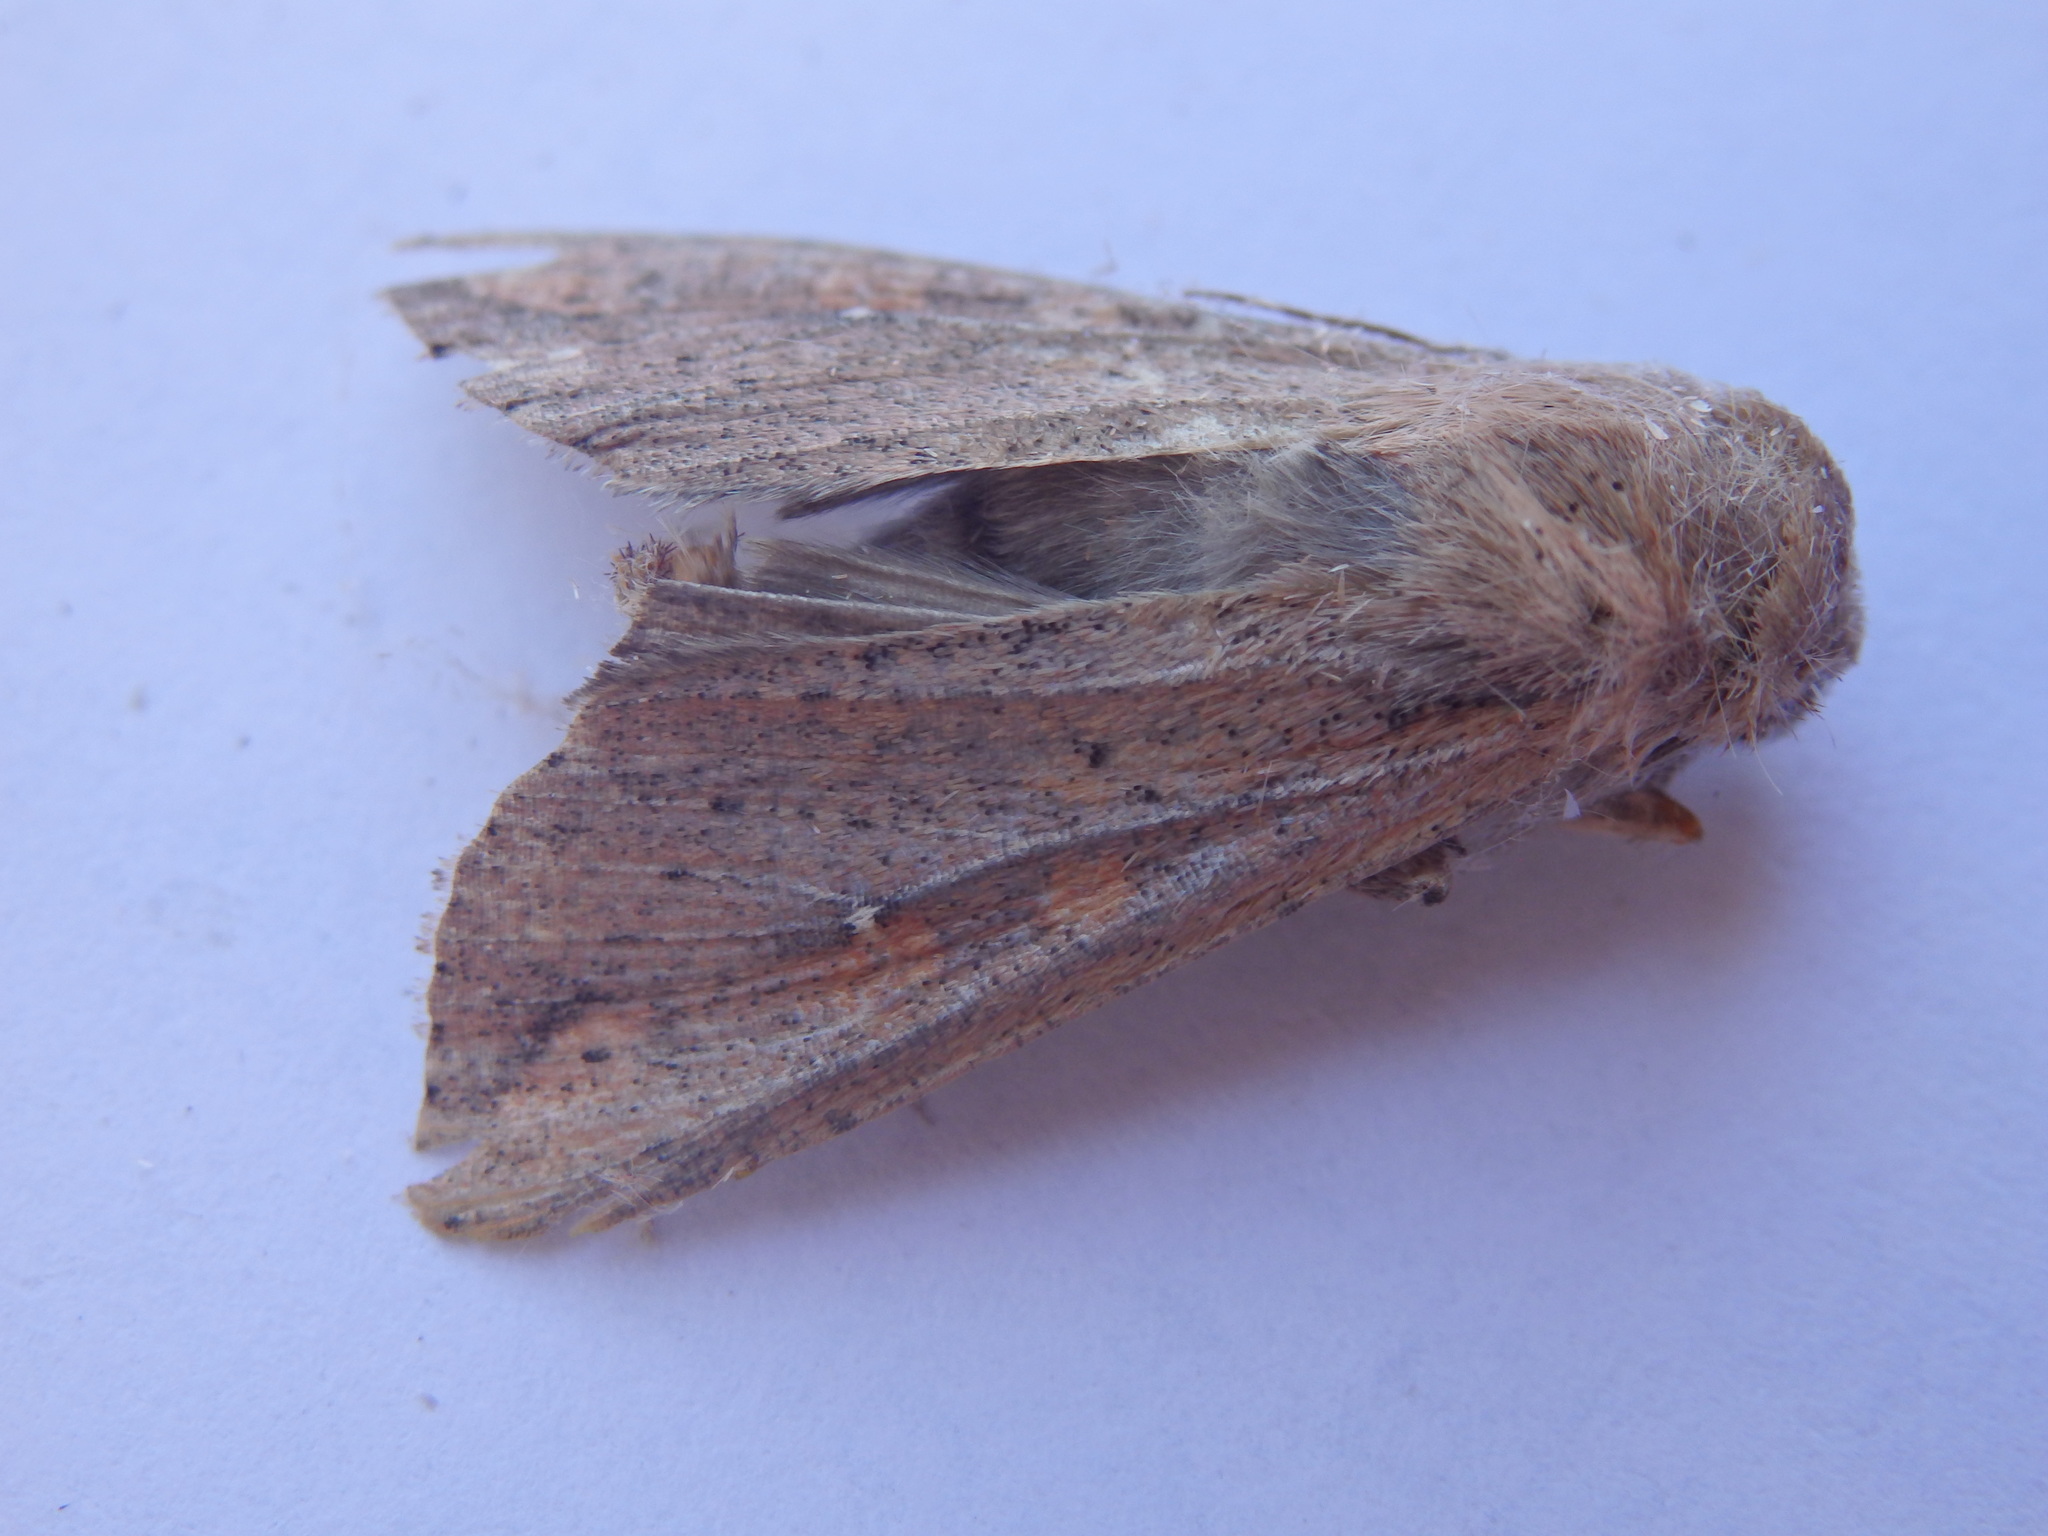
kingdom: Animalia
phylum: Arthropoda
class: Insecta
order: Lepidoptera
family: Noctuidae
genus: Mythimna
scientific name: Mythimna unipuncta
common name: White-speck
